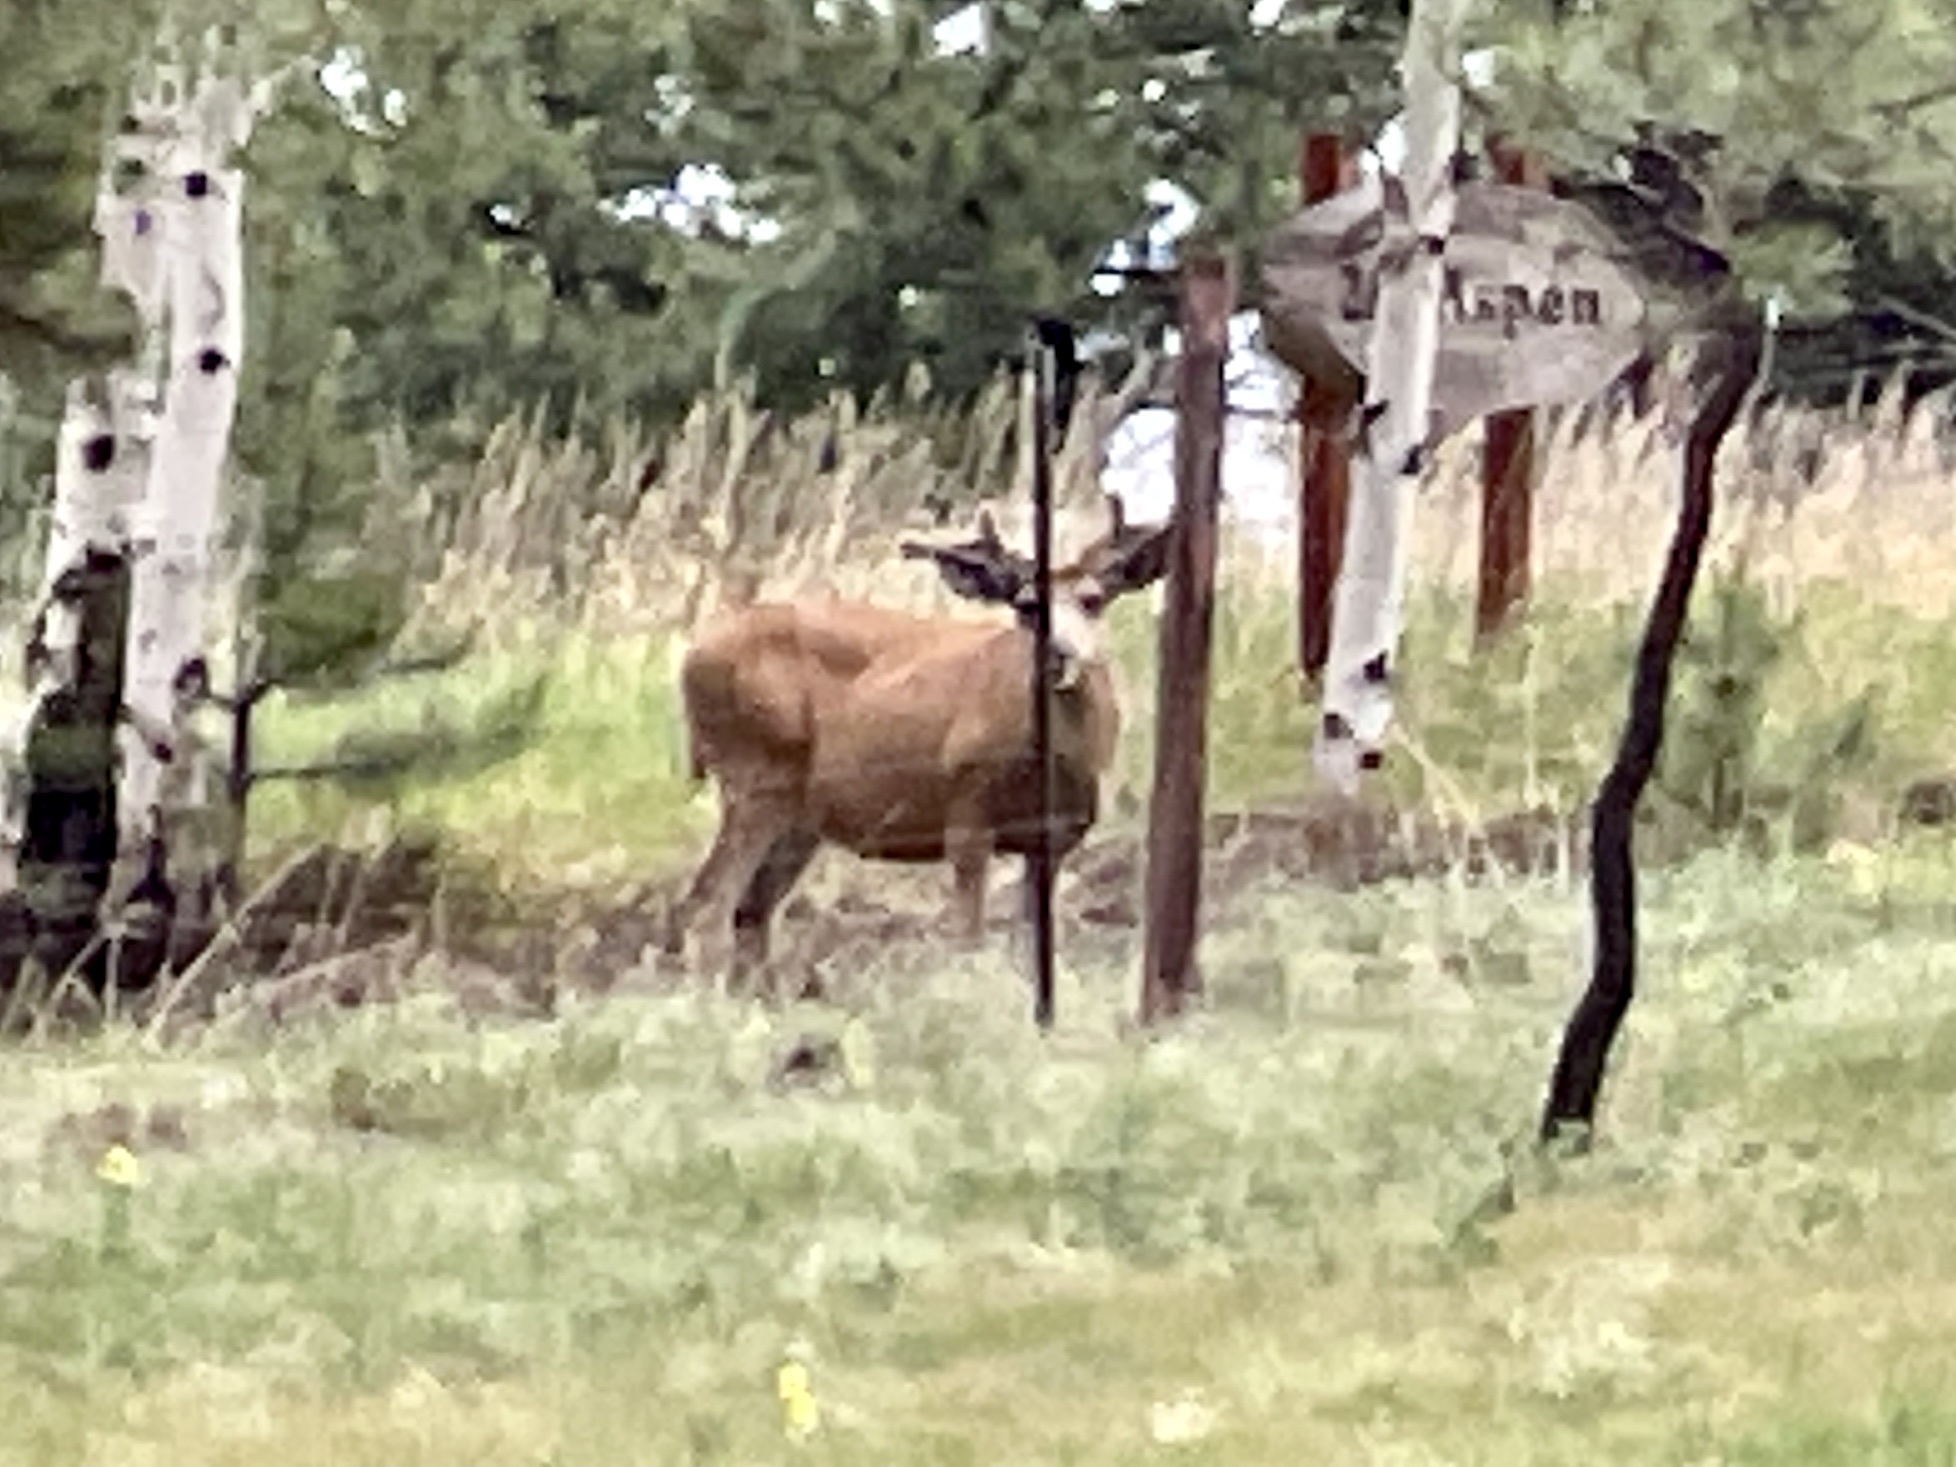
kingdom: Animalia
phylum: Chordata
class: Mammalia
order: Artiodactyla
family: Cervidae
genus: Odocoileus
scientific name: Odocoileus hemionus
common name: Mule deer
